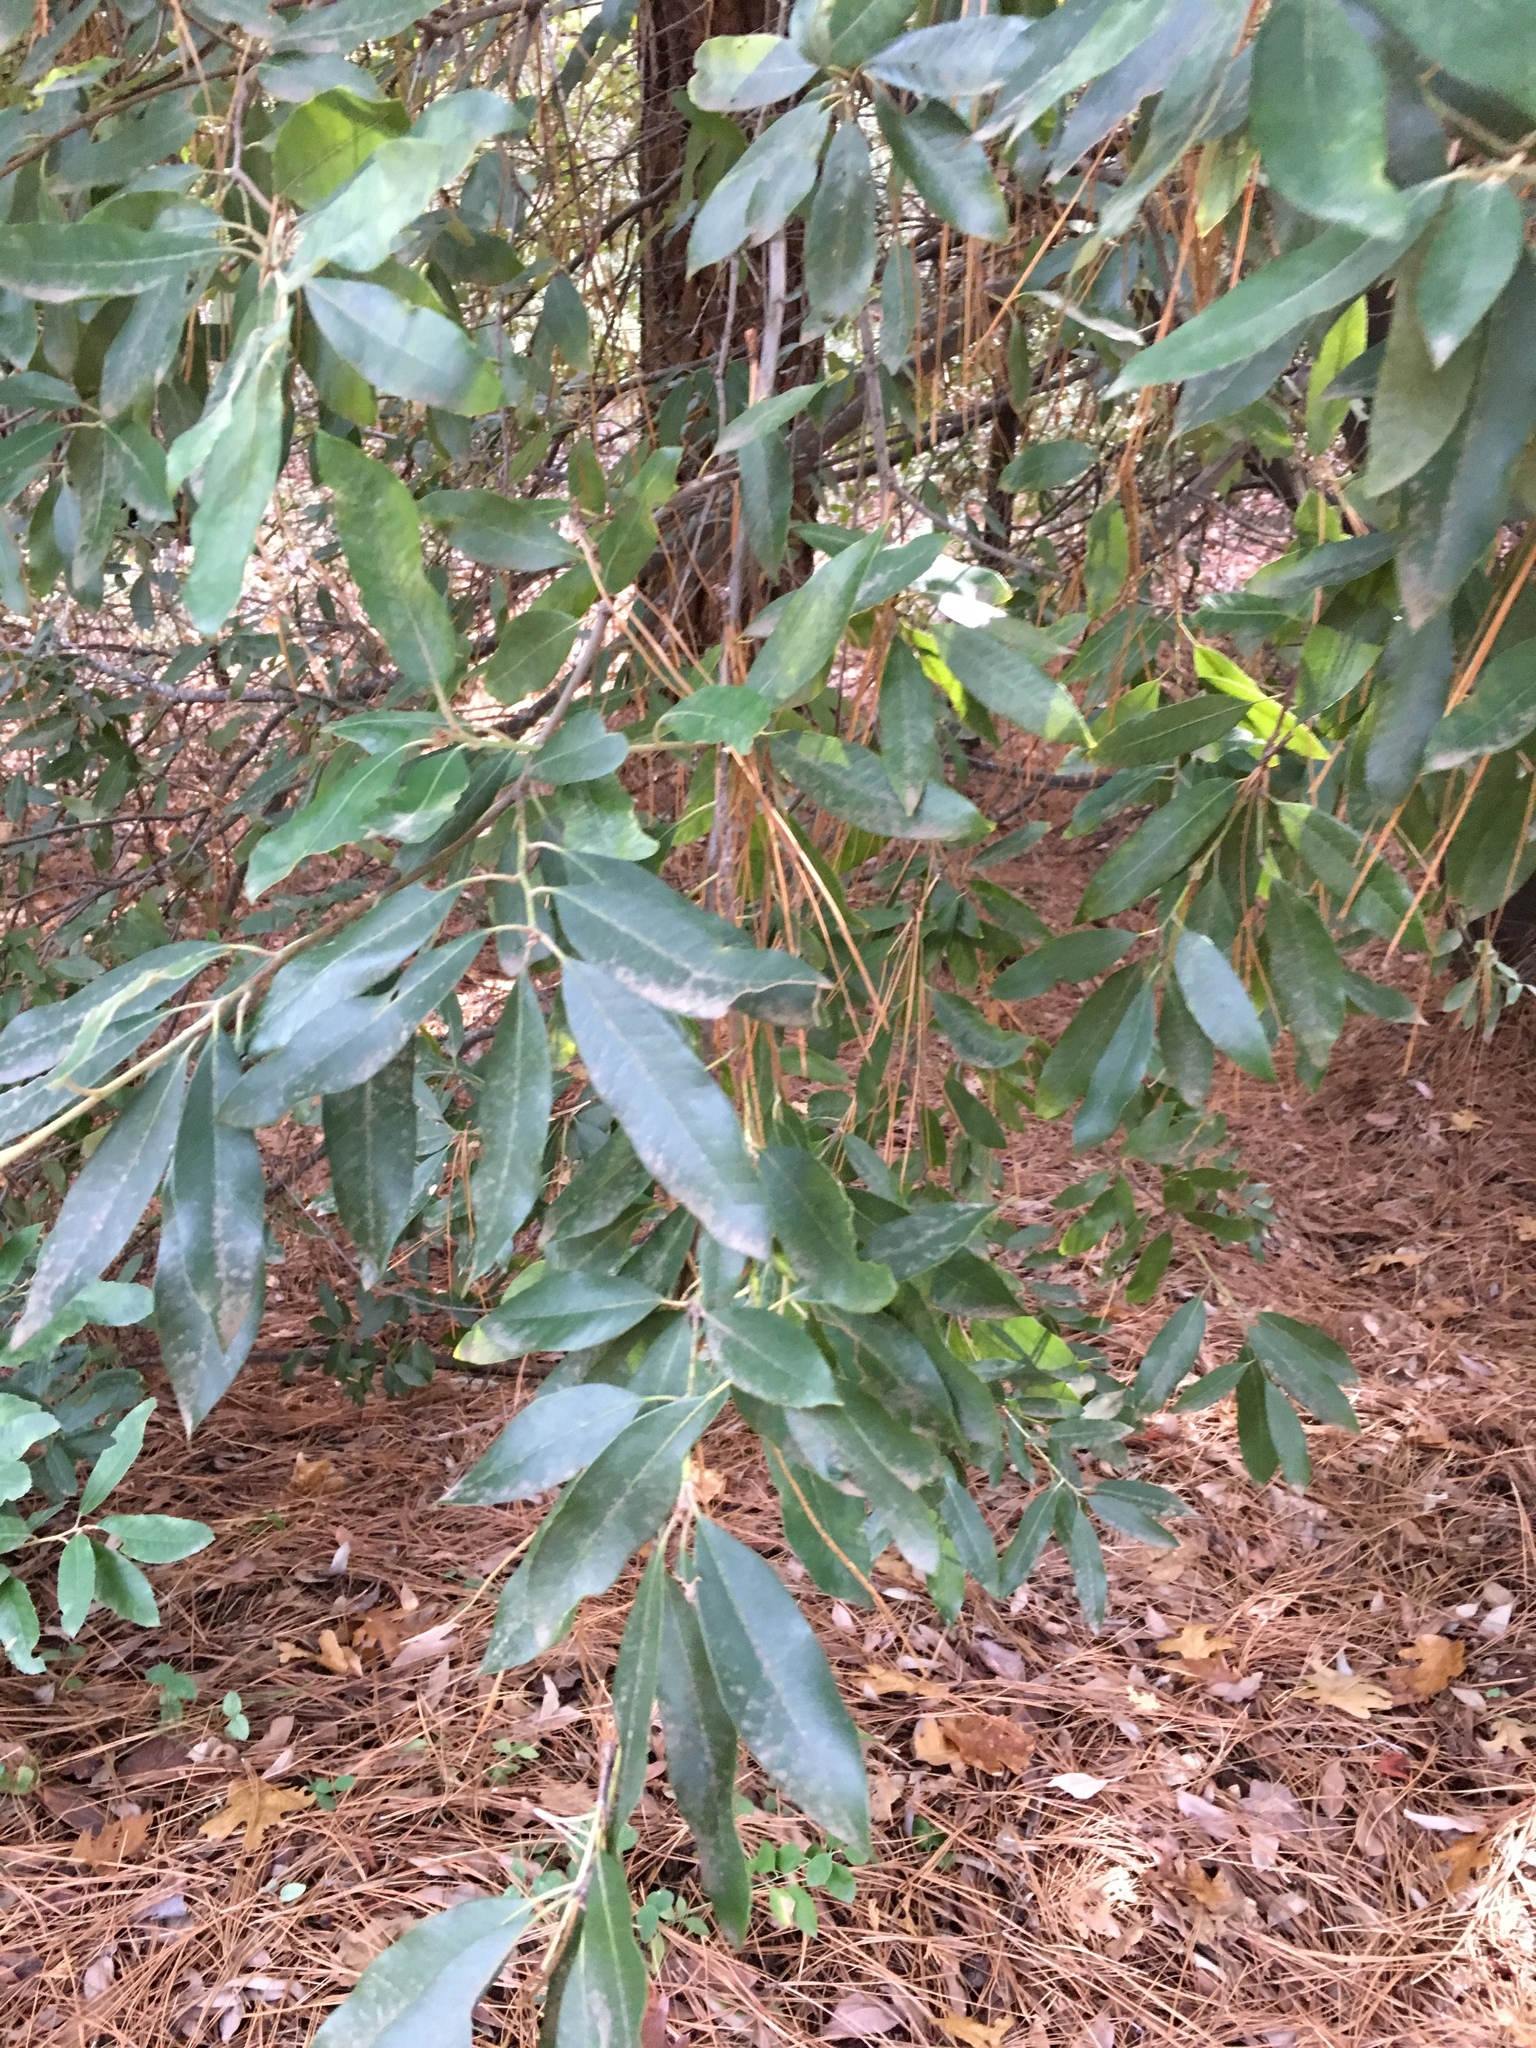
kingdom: Plantae
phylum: Tracheophyta
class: Magnoliopsida
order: Fagales
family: Fagaceae
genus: Notholithocarpus
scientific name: Notholithocarpus densiflorus
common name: Tan bark oak
